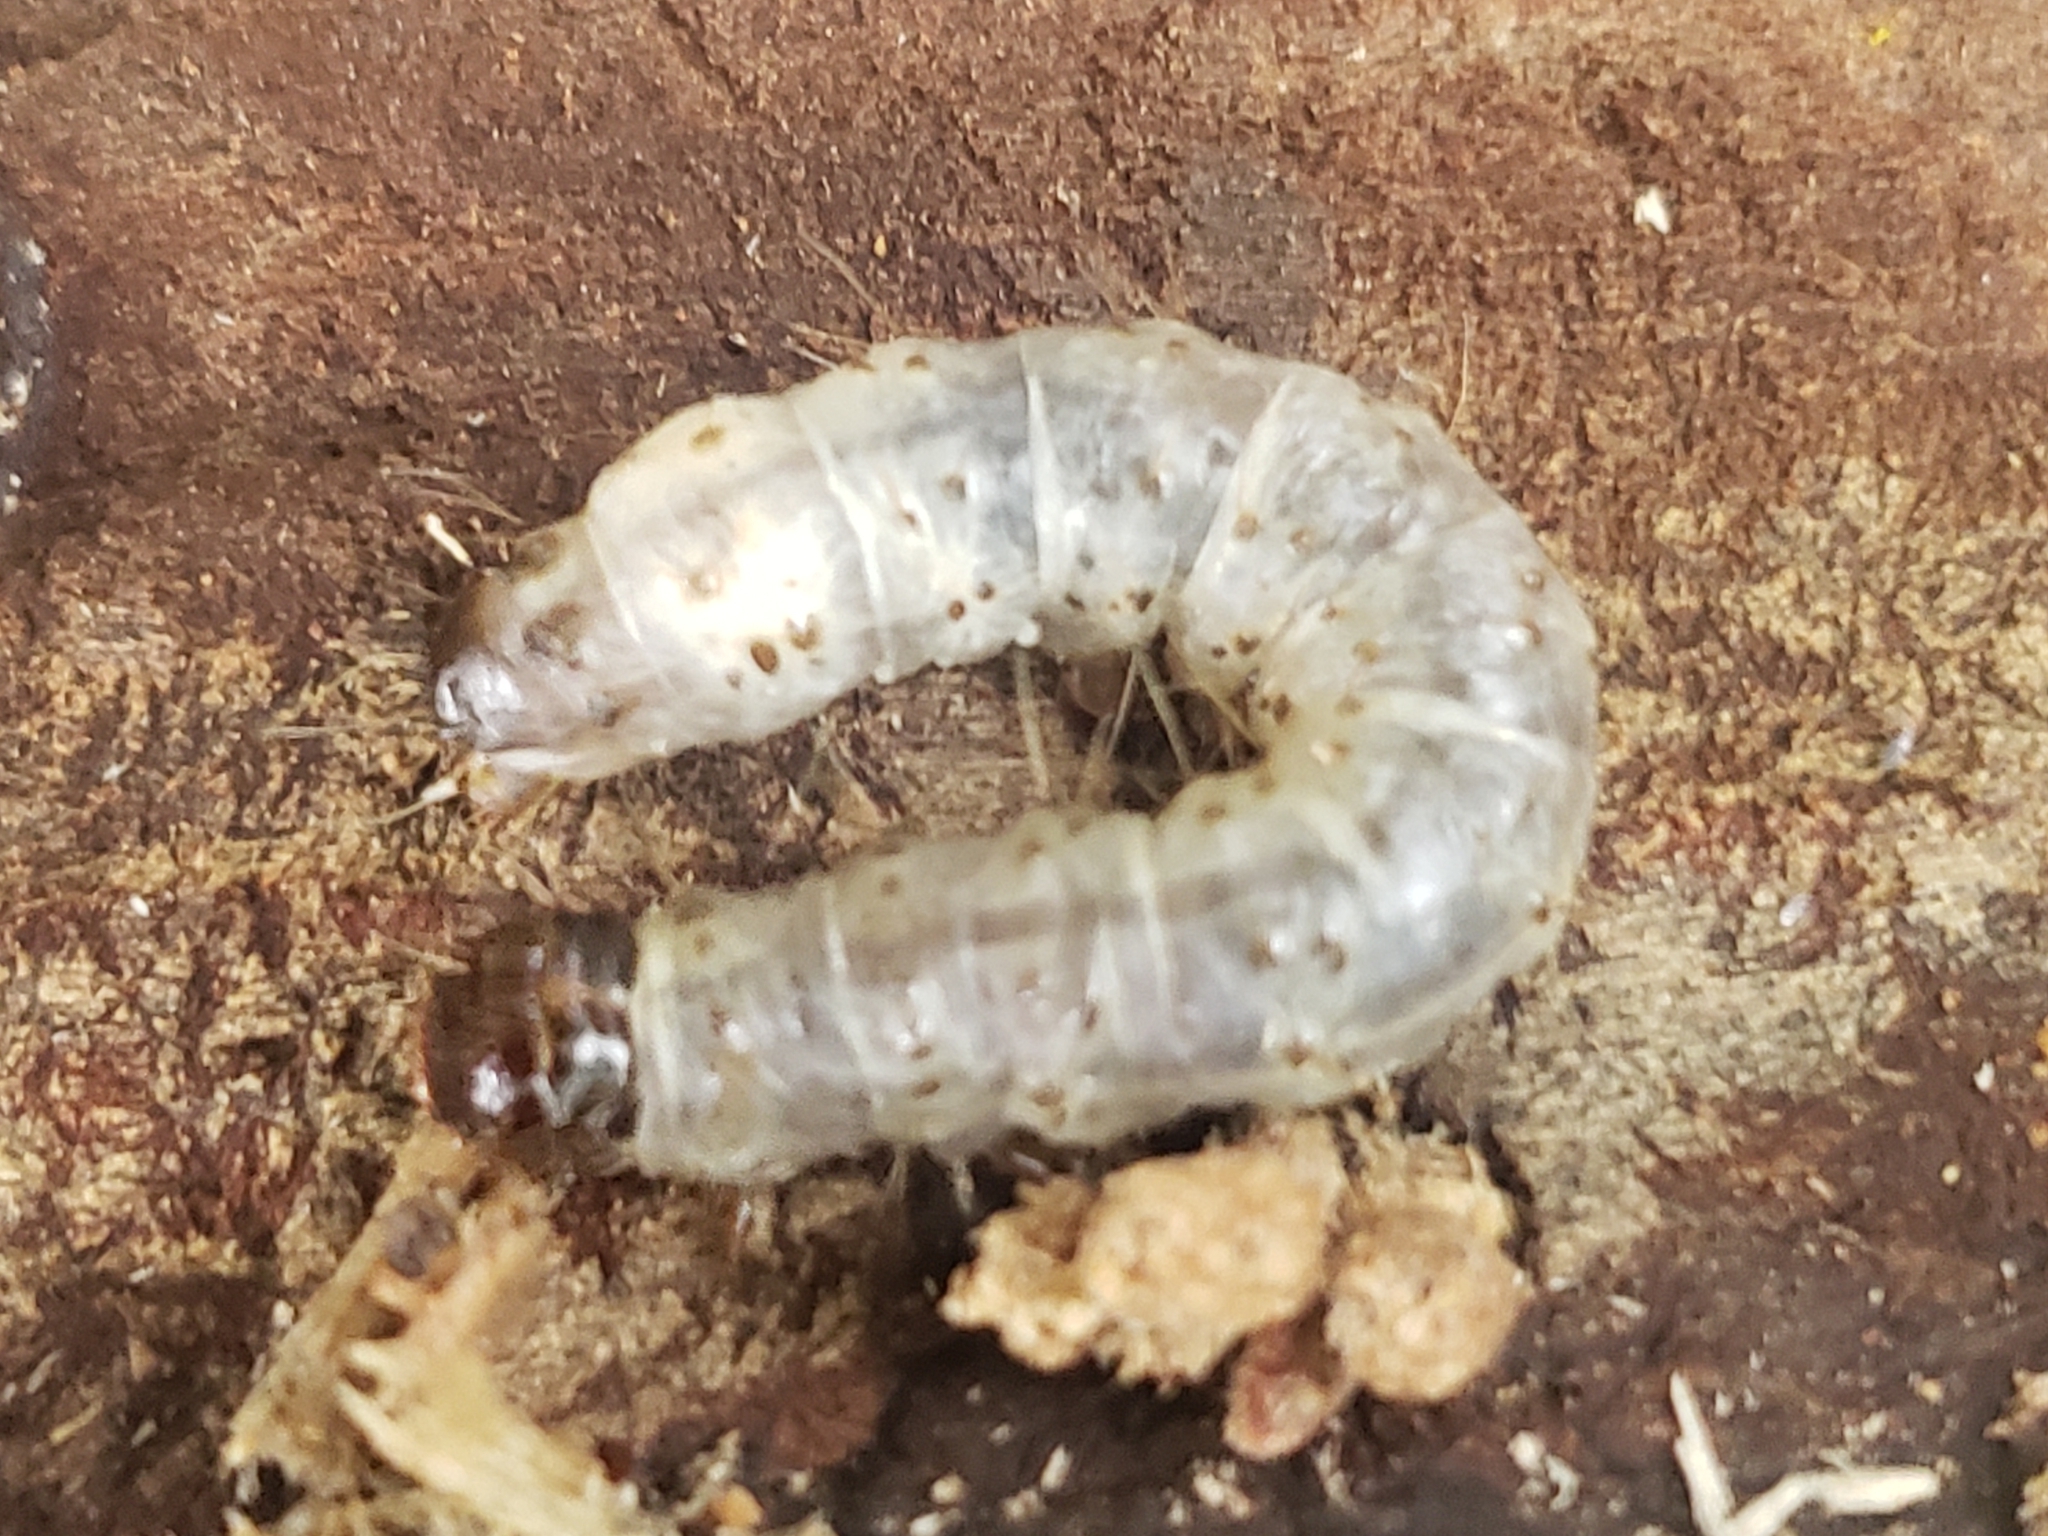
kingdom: Animalia
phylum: Arthropoda
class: Insecta
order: Lepidoptera
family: Erebidae
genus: Scolecocampa
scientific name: Scolecocampa liburna
